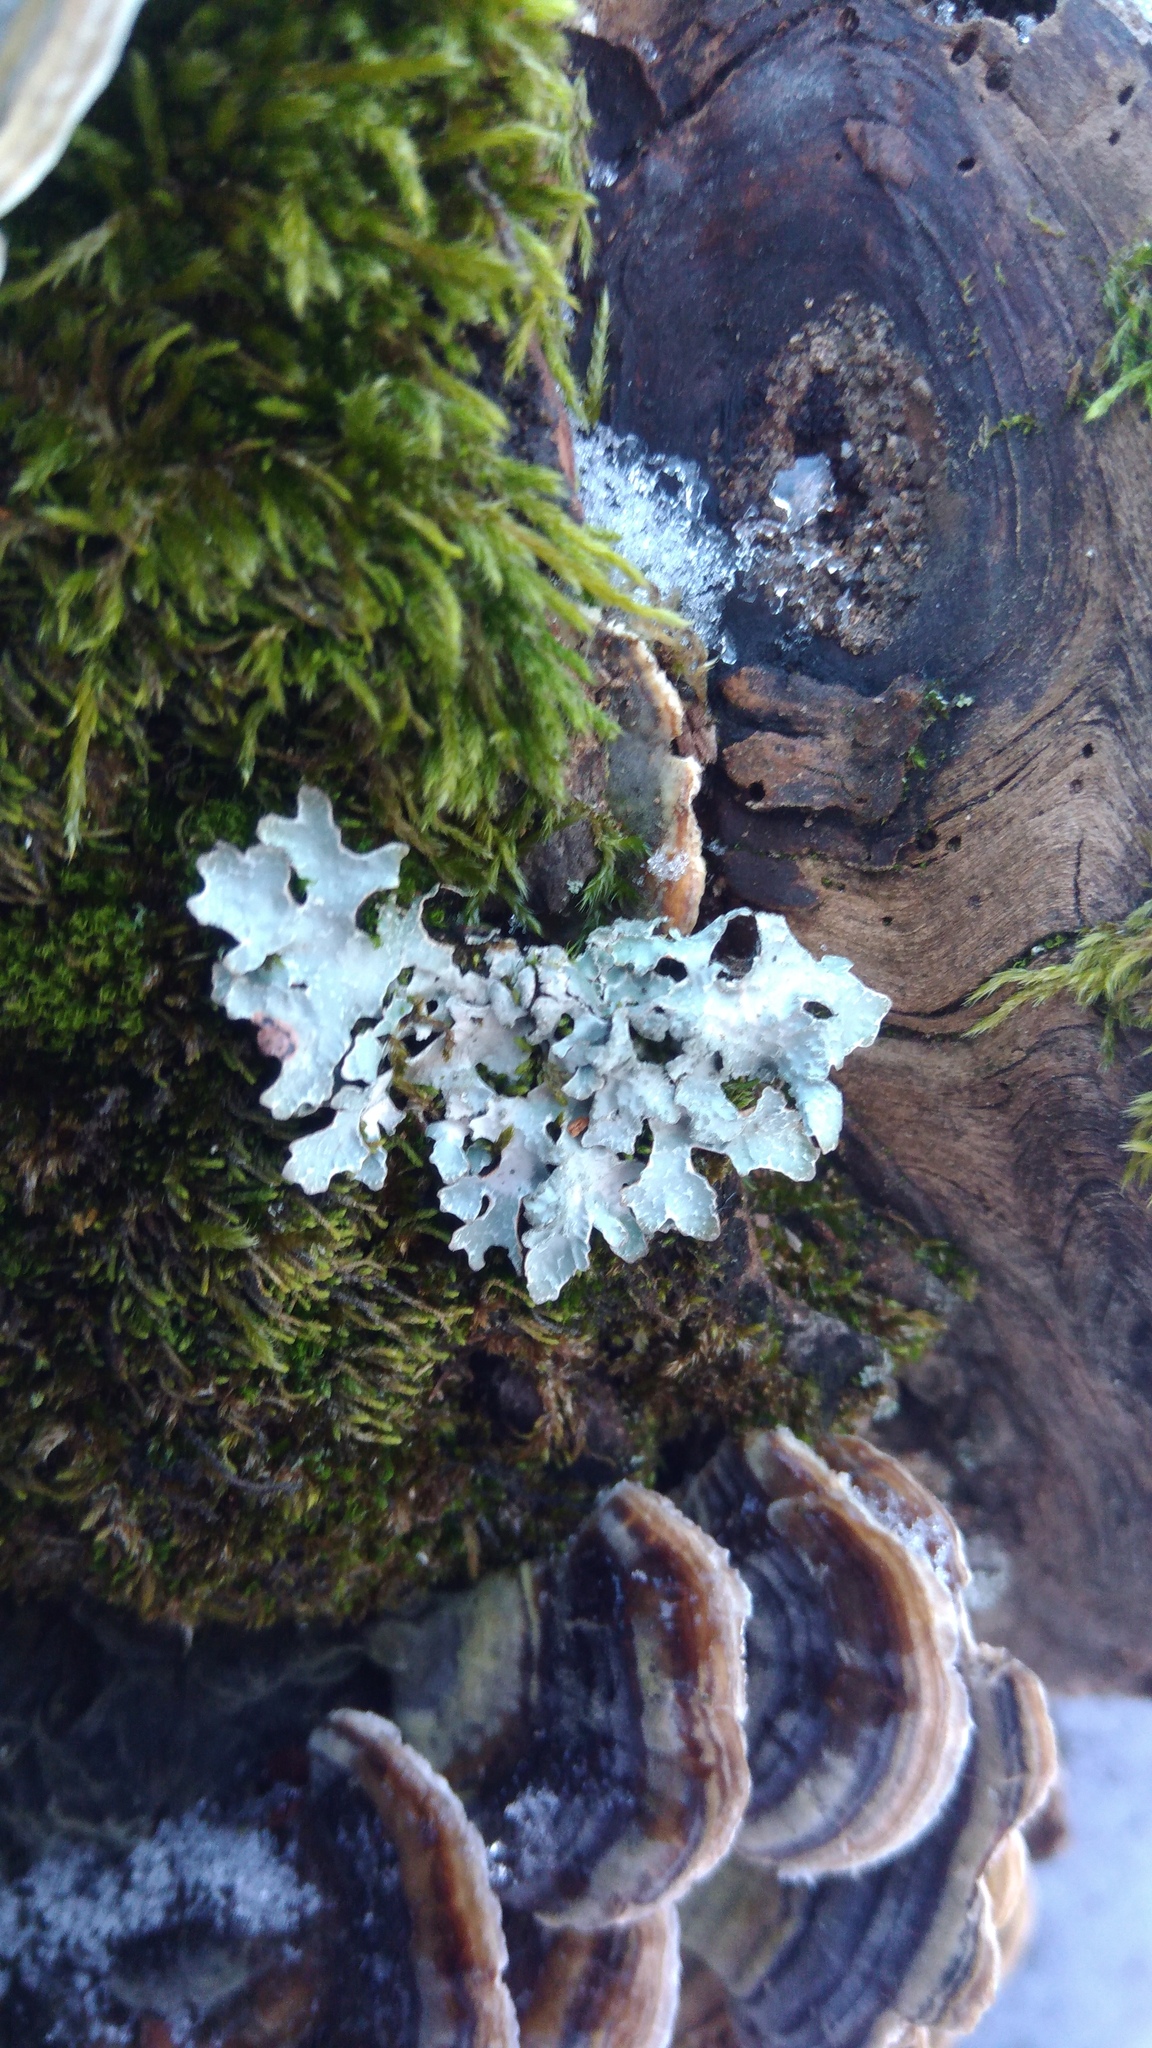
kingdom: Fungi
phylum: Ascomycota
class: Lecanoromycetes
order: Lecanorales
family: Parmeliaceae
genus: Parmelia
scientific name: Parmelia sulcata
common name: Netted shield lichen
